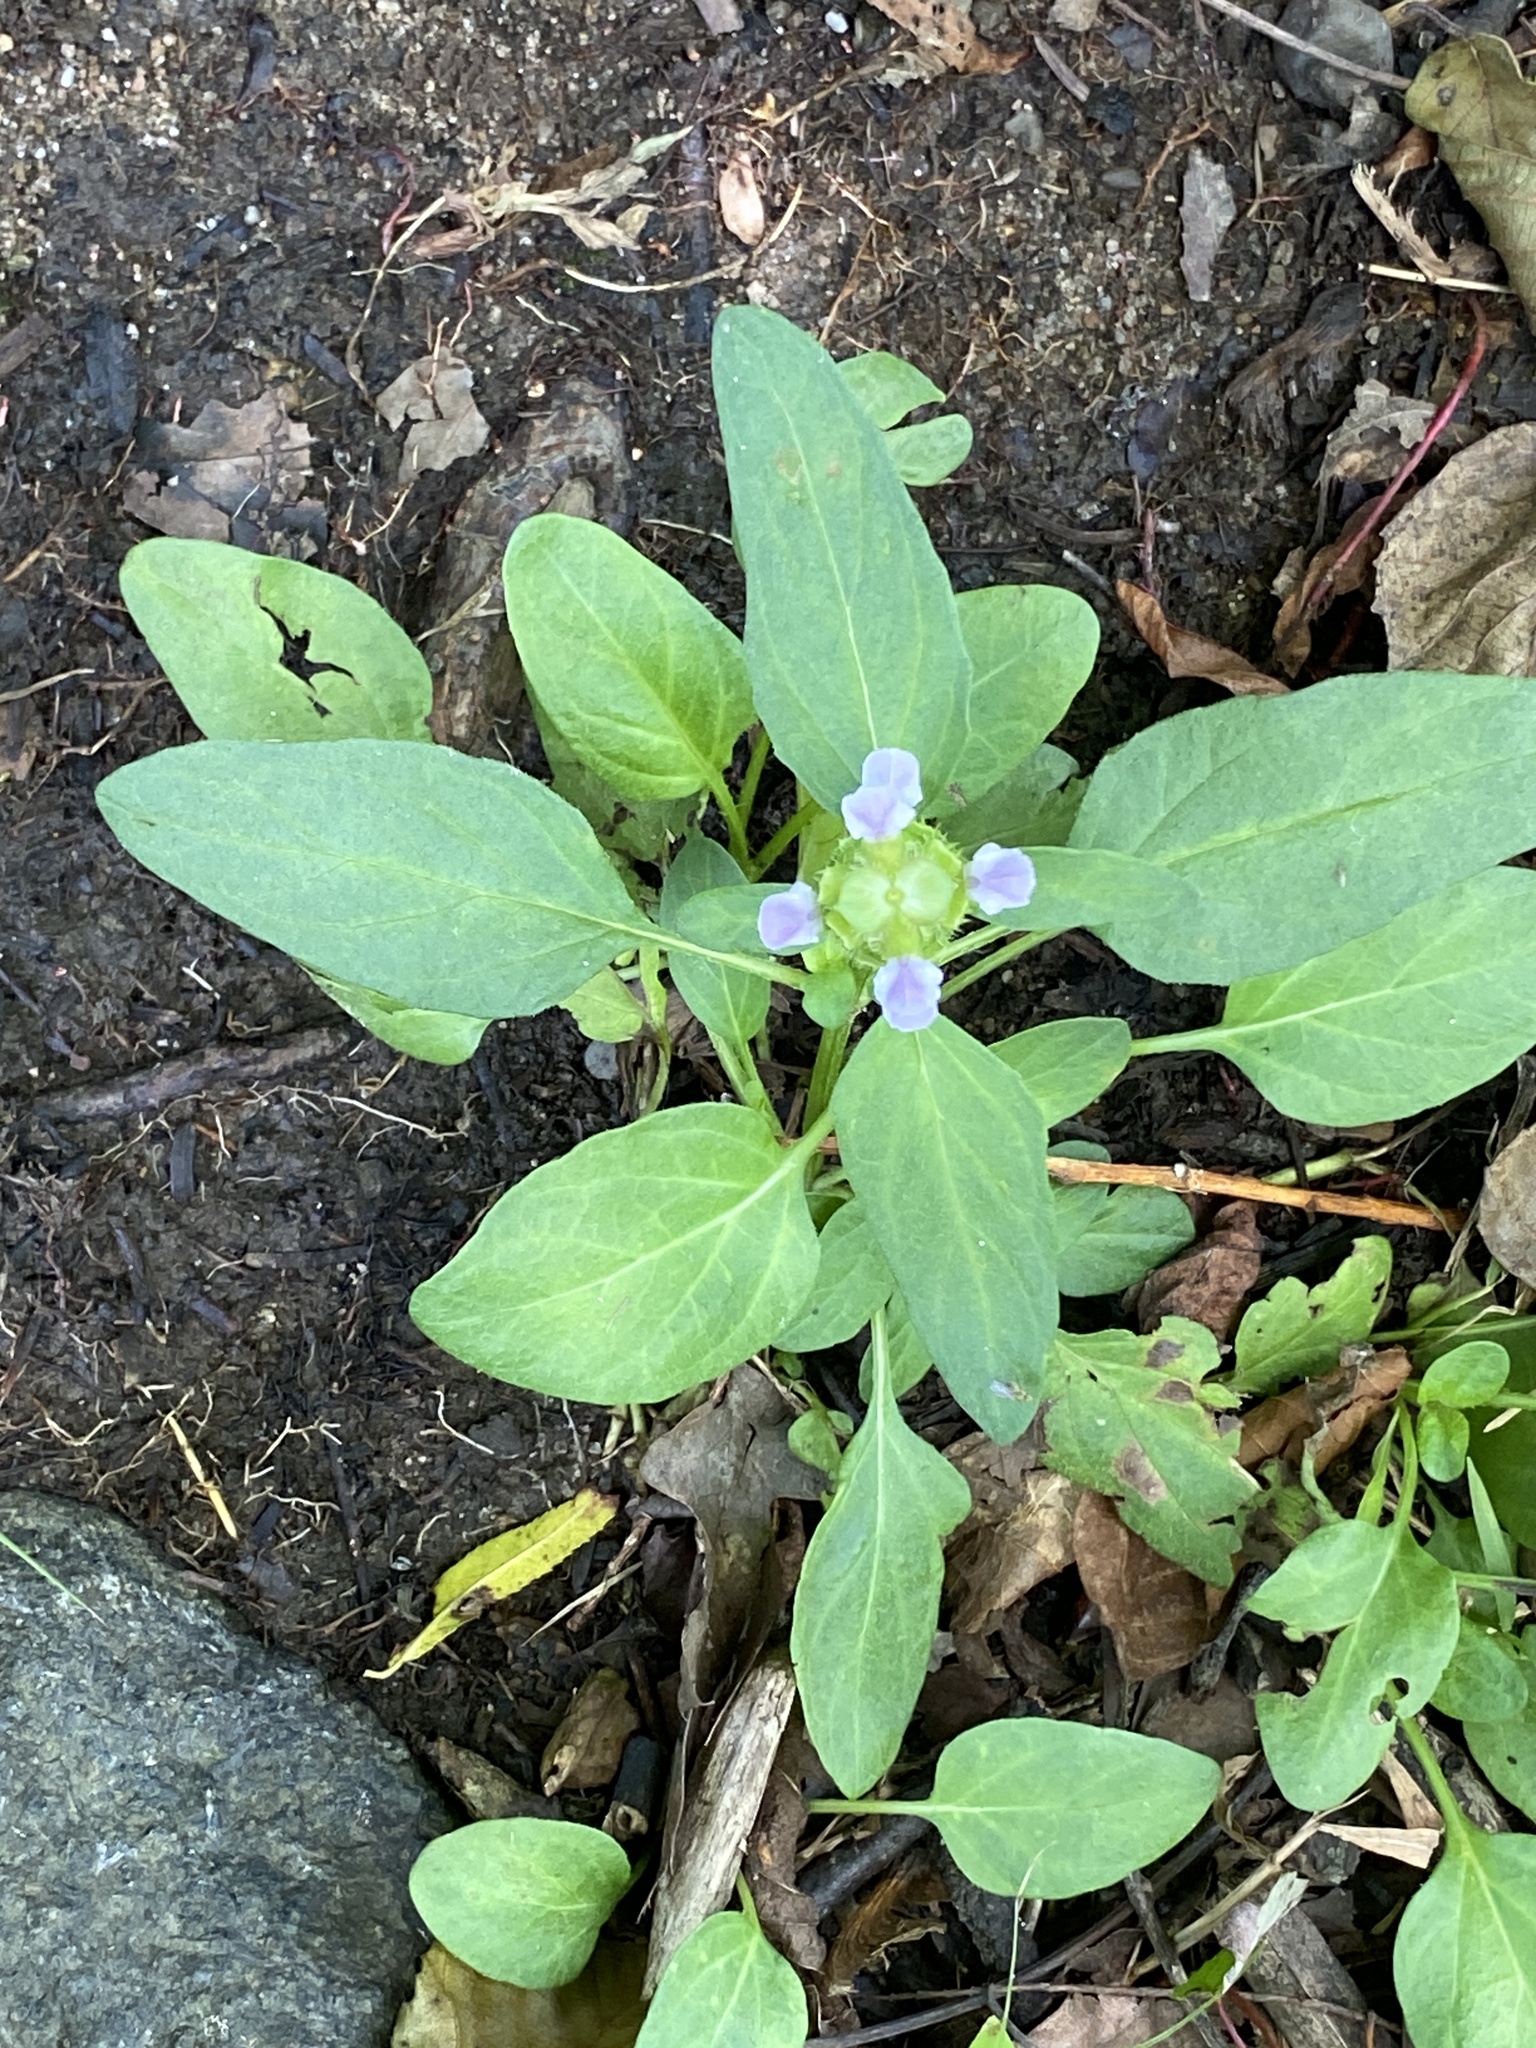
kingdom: Plantae
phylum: Tracheophyta
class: Magnoliopsida
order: Lamiales
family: Lamiaceae
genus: Prunella
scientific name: Prunella vulgaris
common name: Heal-all
